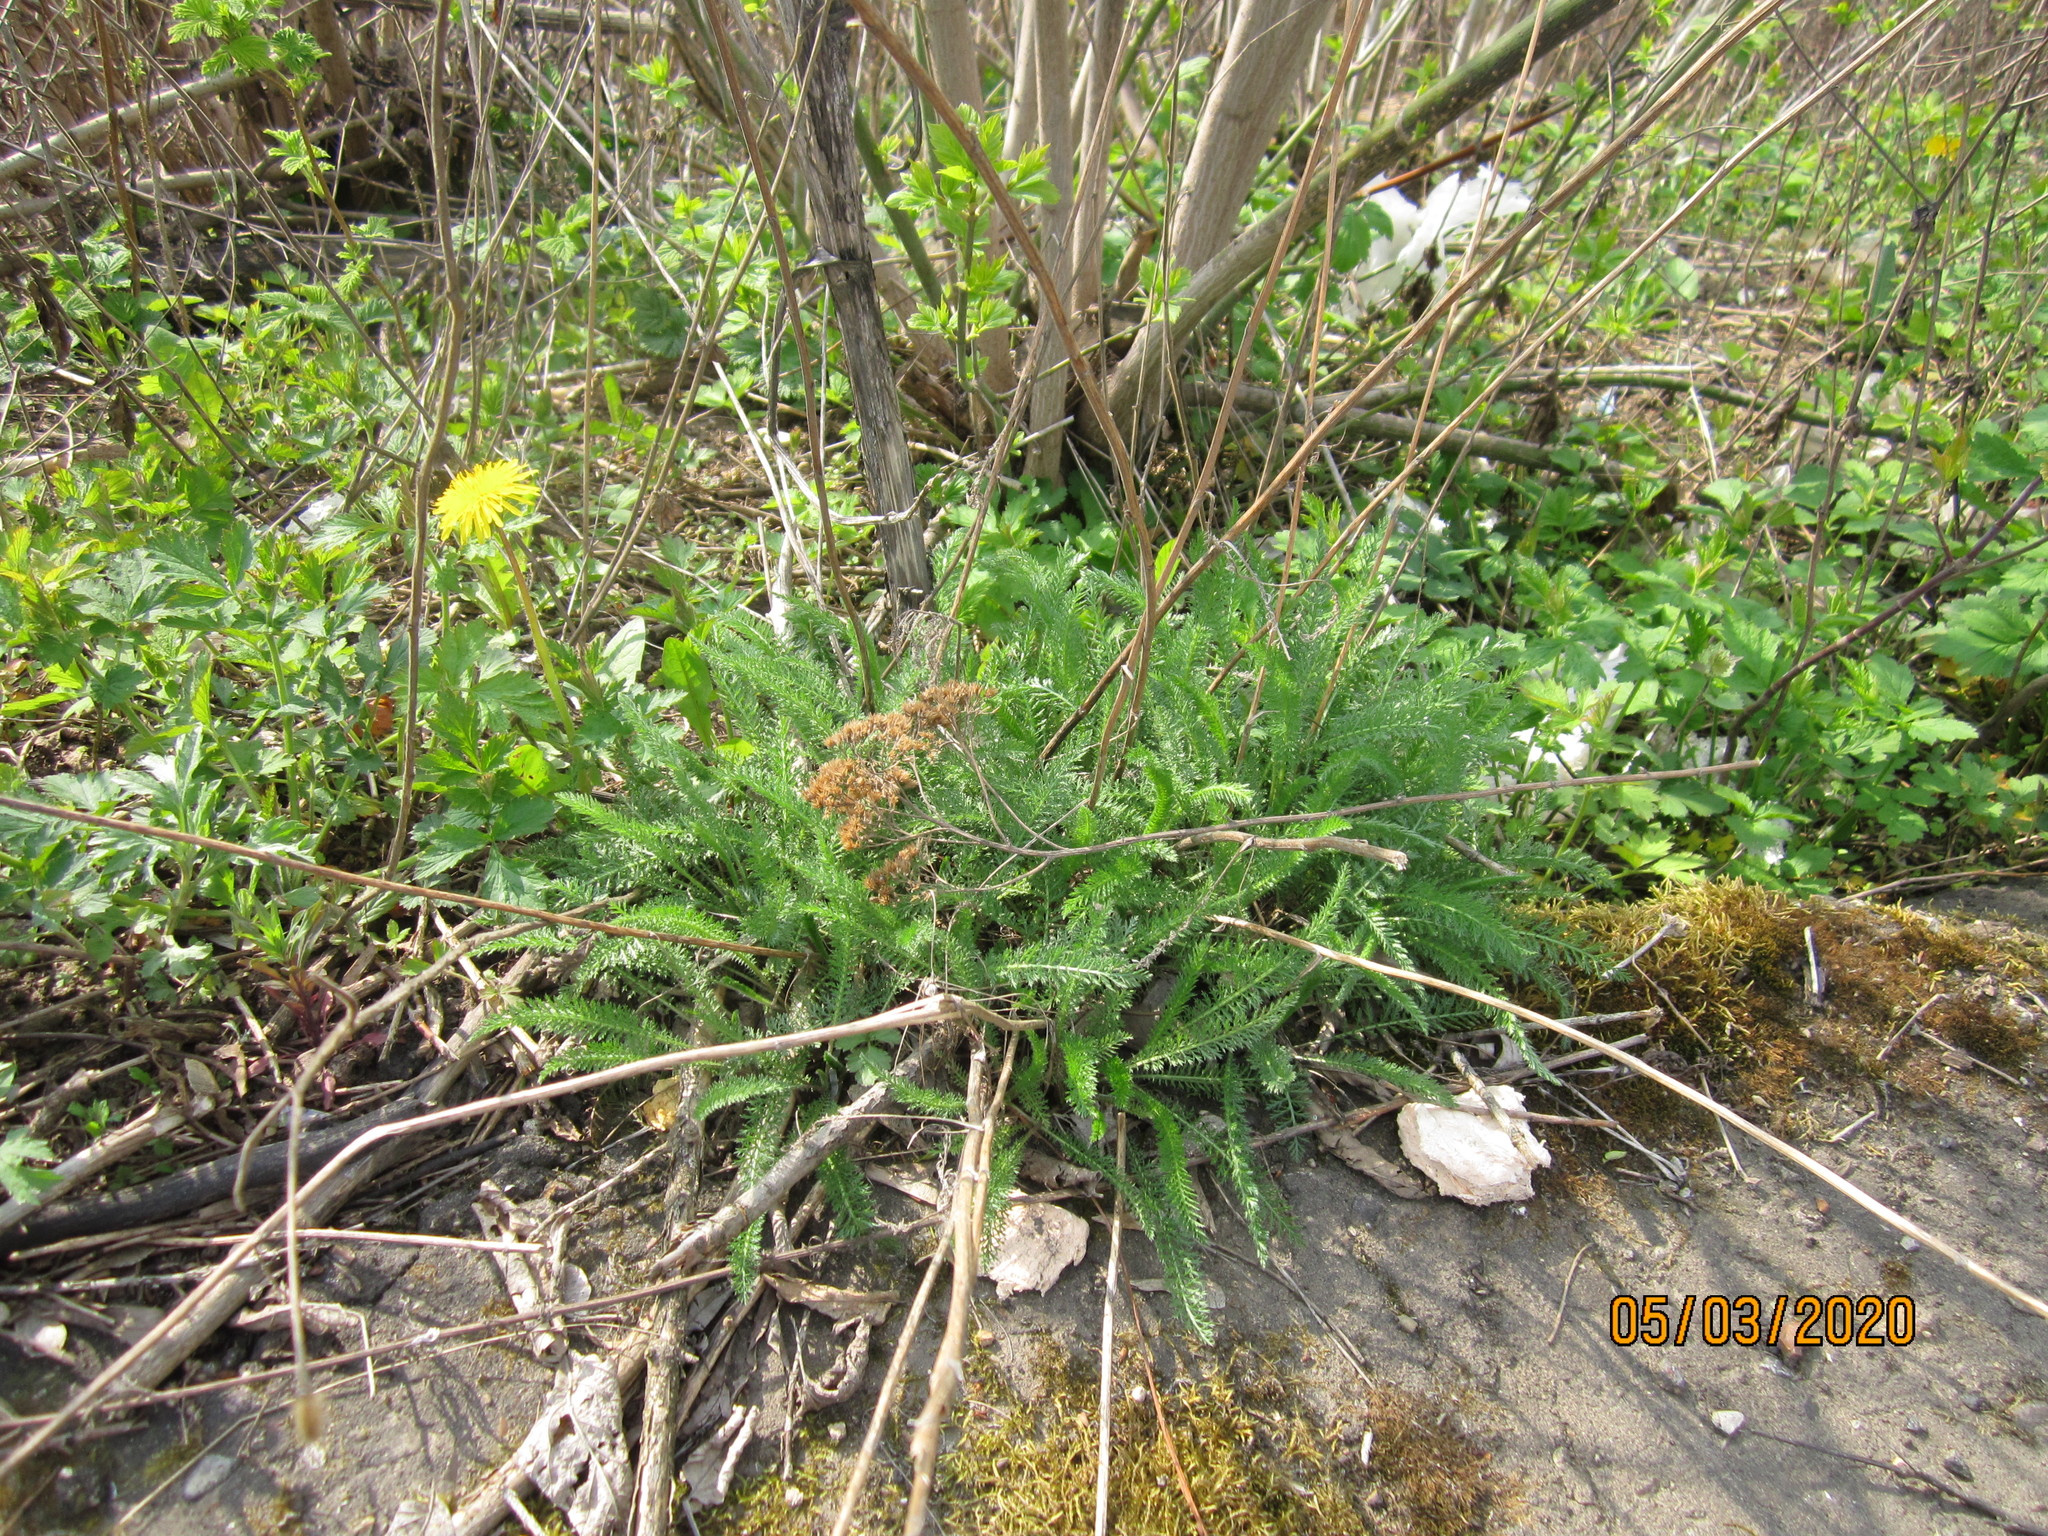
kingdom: Plantae
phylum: Tracheophyta
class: Magnoliopsida
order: Asterales
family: Asteraceae
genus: Achillea
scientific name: Achillea millefolium
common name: Yarrow
